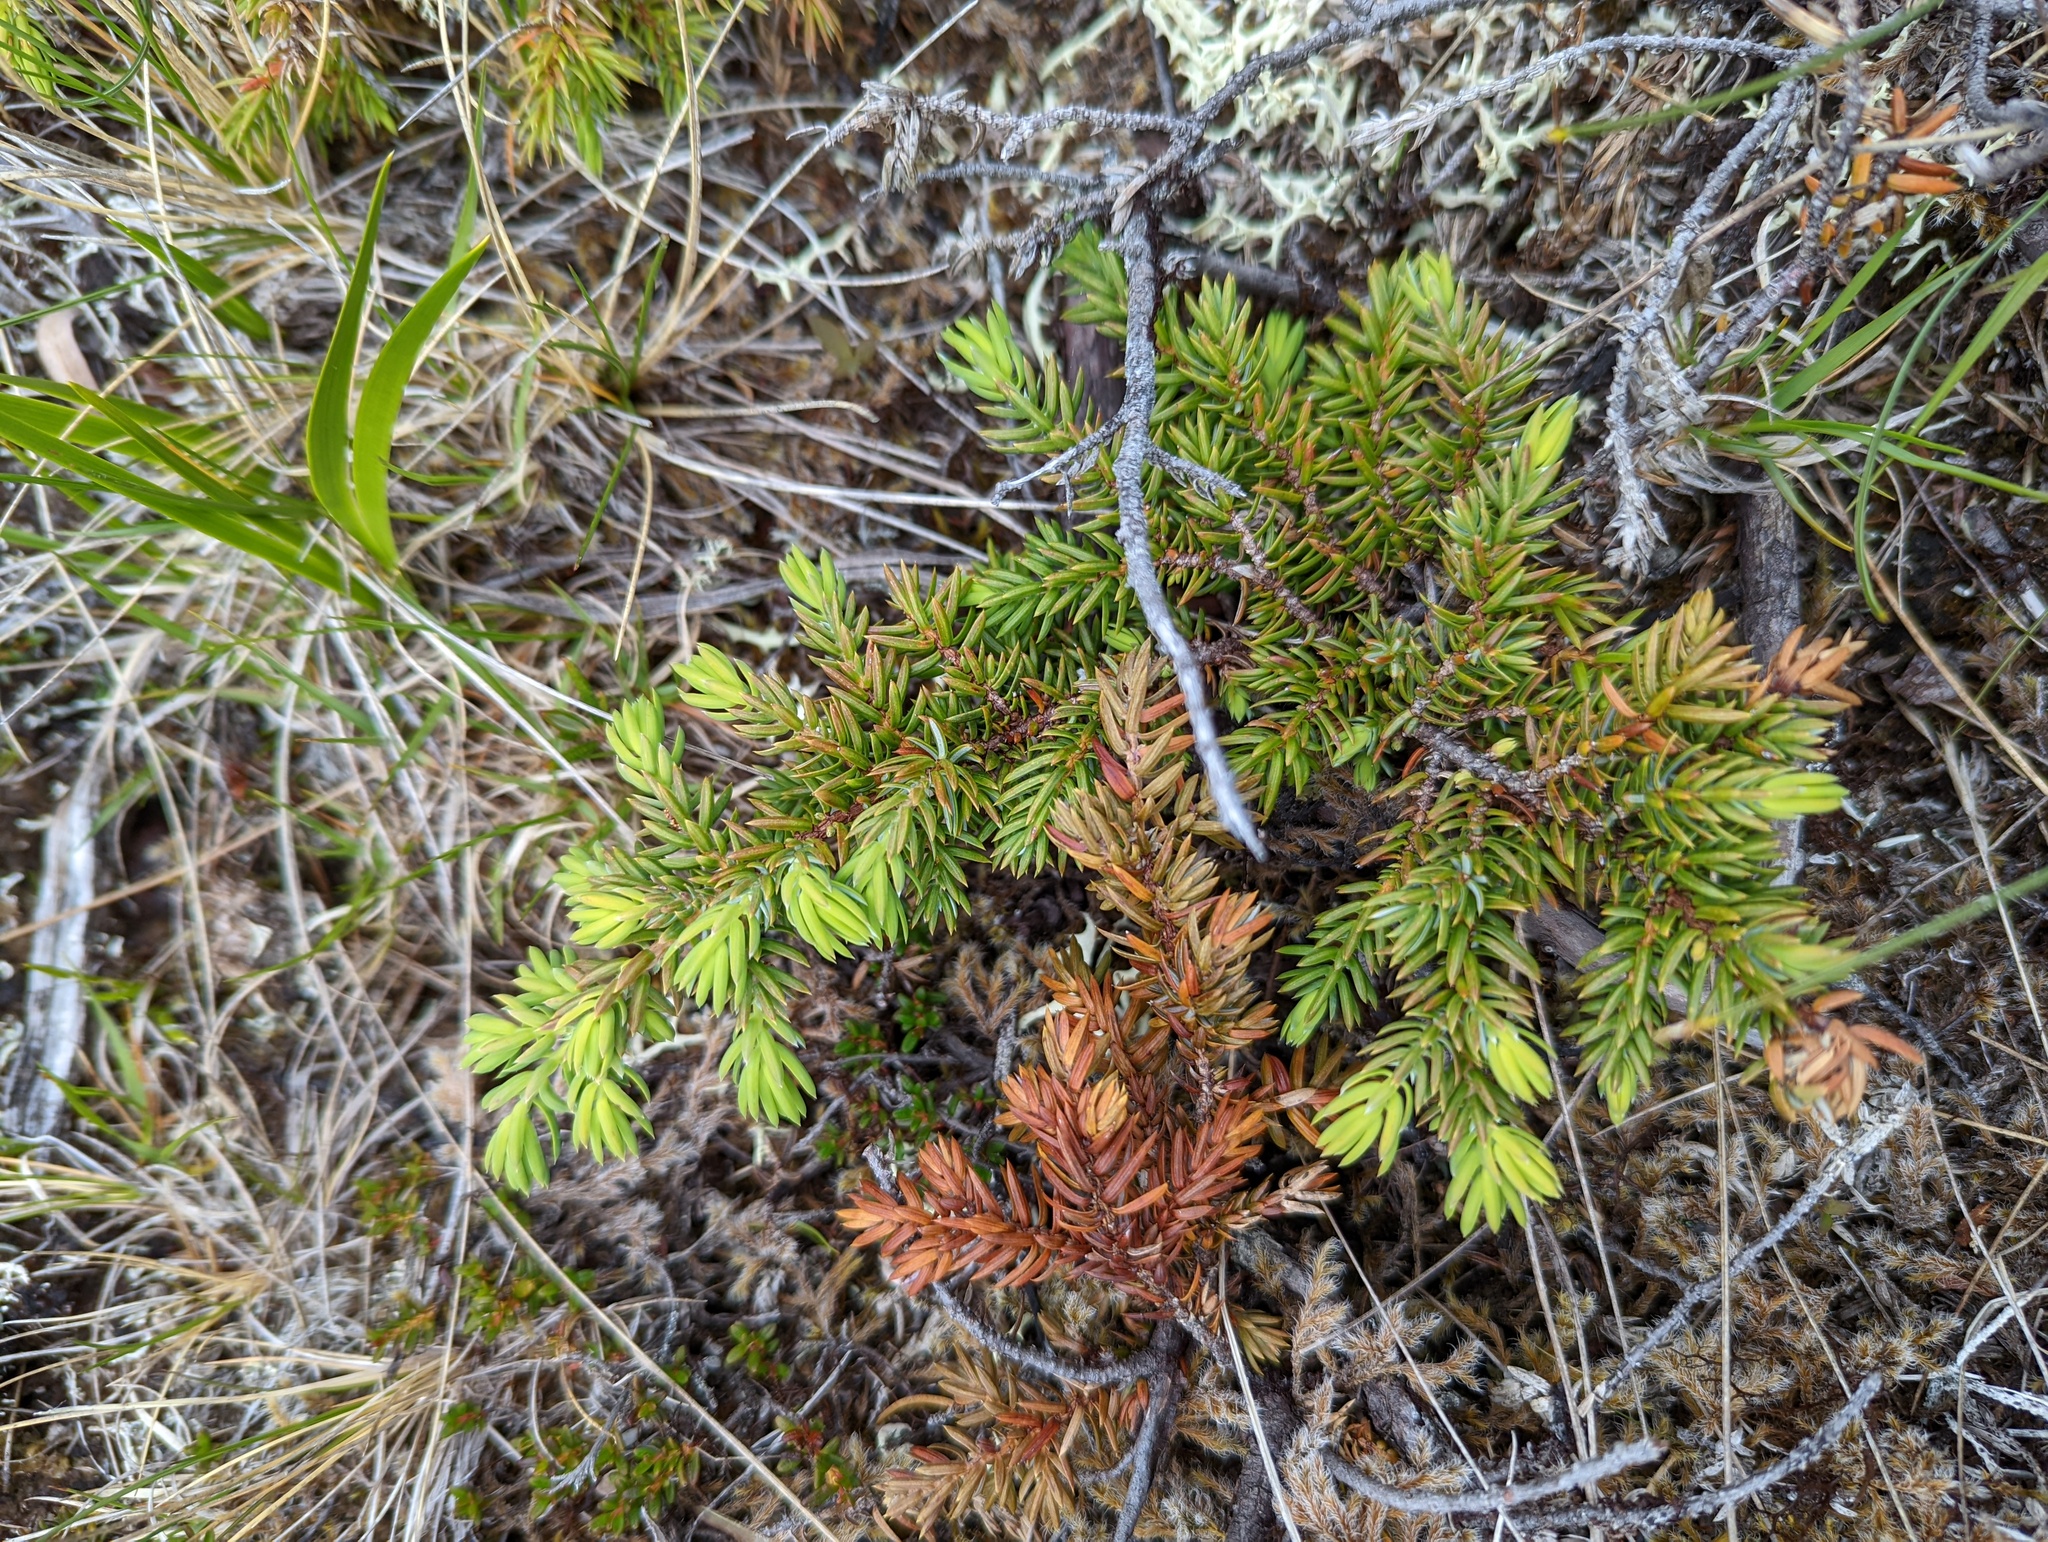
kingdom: Plantae
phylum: Tracheophyta
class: Pinopsida
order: Pinales
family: Cupressaceae
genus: Juniperus
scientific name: Juniperus communis
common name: Common juniper
